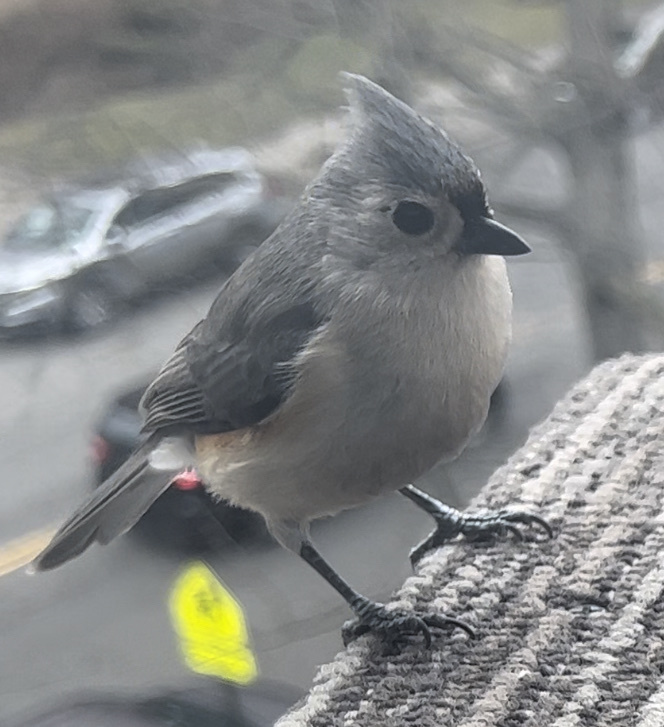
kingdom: Animalia
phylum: Chordata
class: Aves
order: Passeriformes
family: Paridae
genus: Baeolophus
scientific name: Baeolophus bicolor
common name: Tufted titmouse
